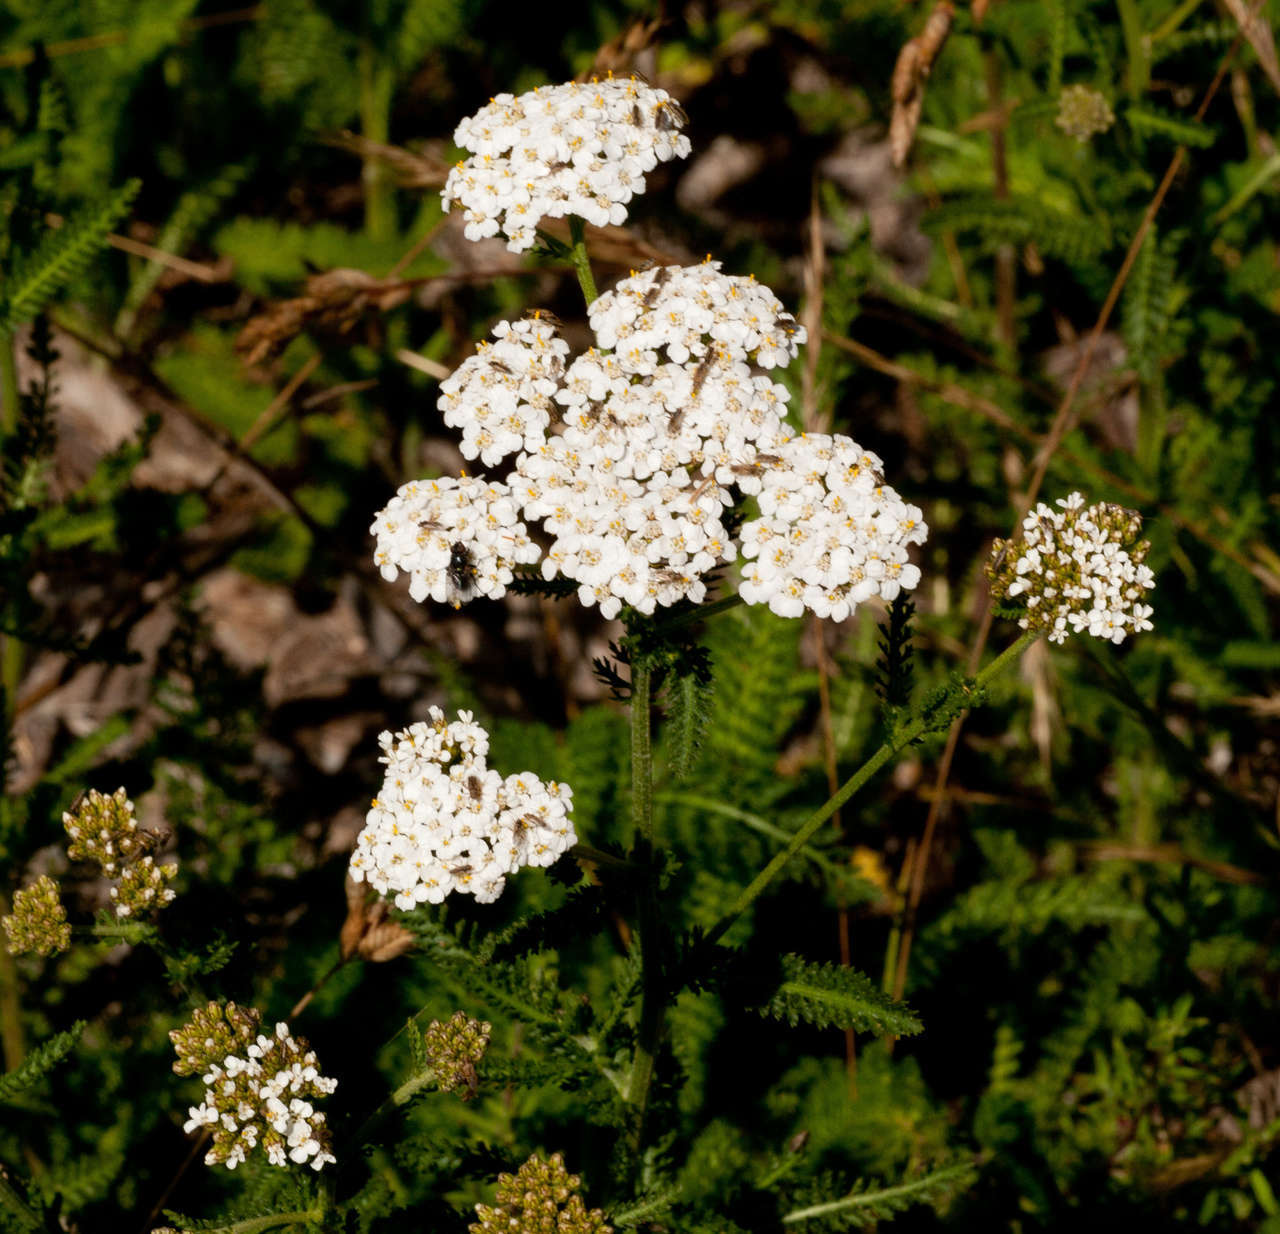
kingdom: Plantae
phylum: Tracheophyta
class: Magnoliopsida
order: Asterales
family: Asteraceae
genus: Achillea
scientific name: Achillea millefolium
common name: Yarrow
